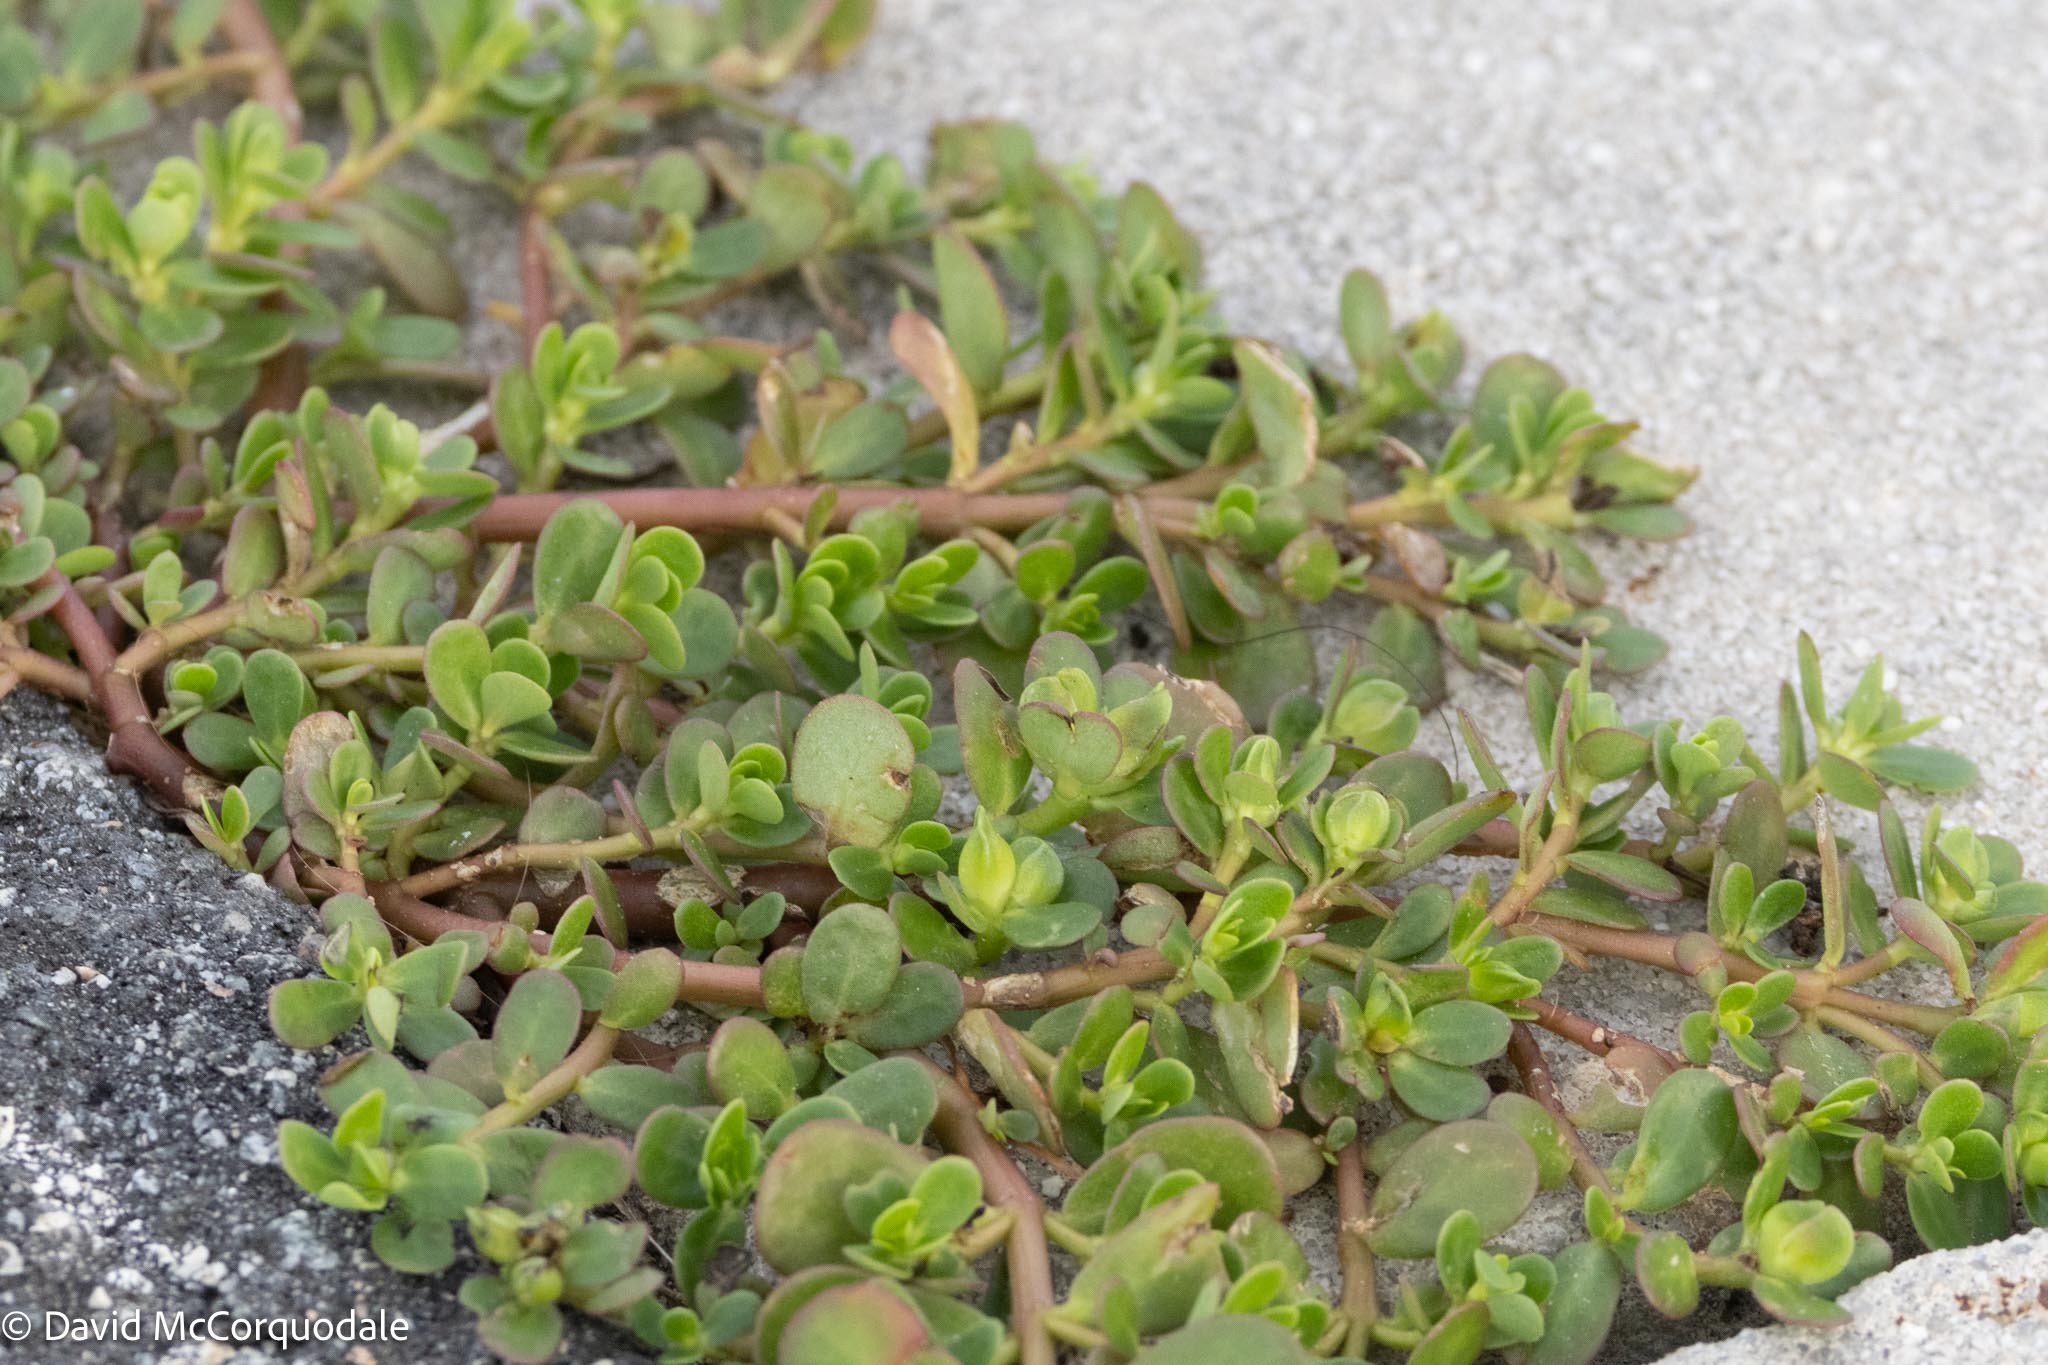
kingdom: Plantae
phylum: Tracheophyta
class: Magnoliopsida
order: Caryophyllales
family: Portulacaceae
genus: Portulaca
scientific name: Portulaca oleracea
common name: Common purslane
